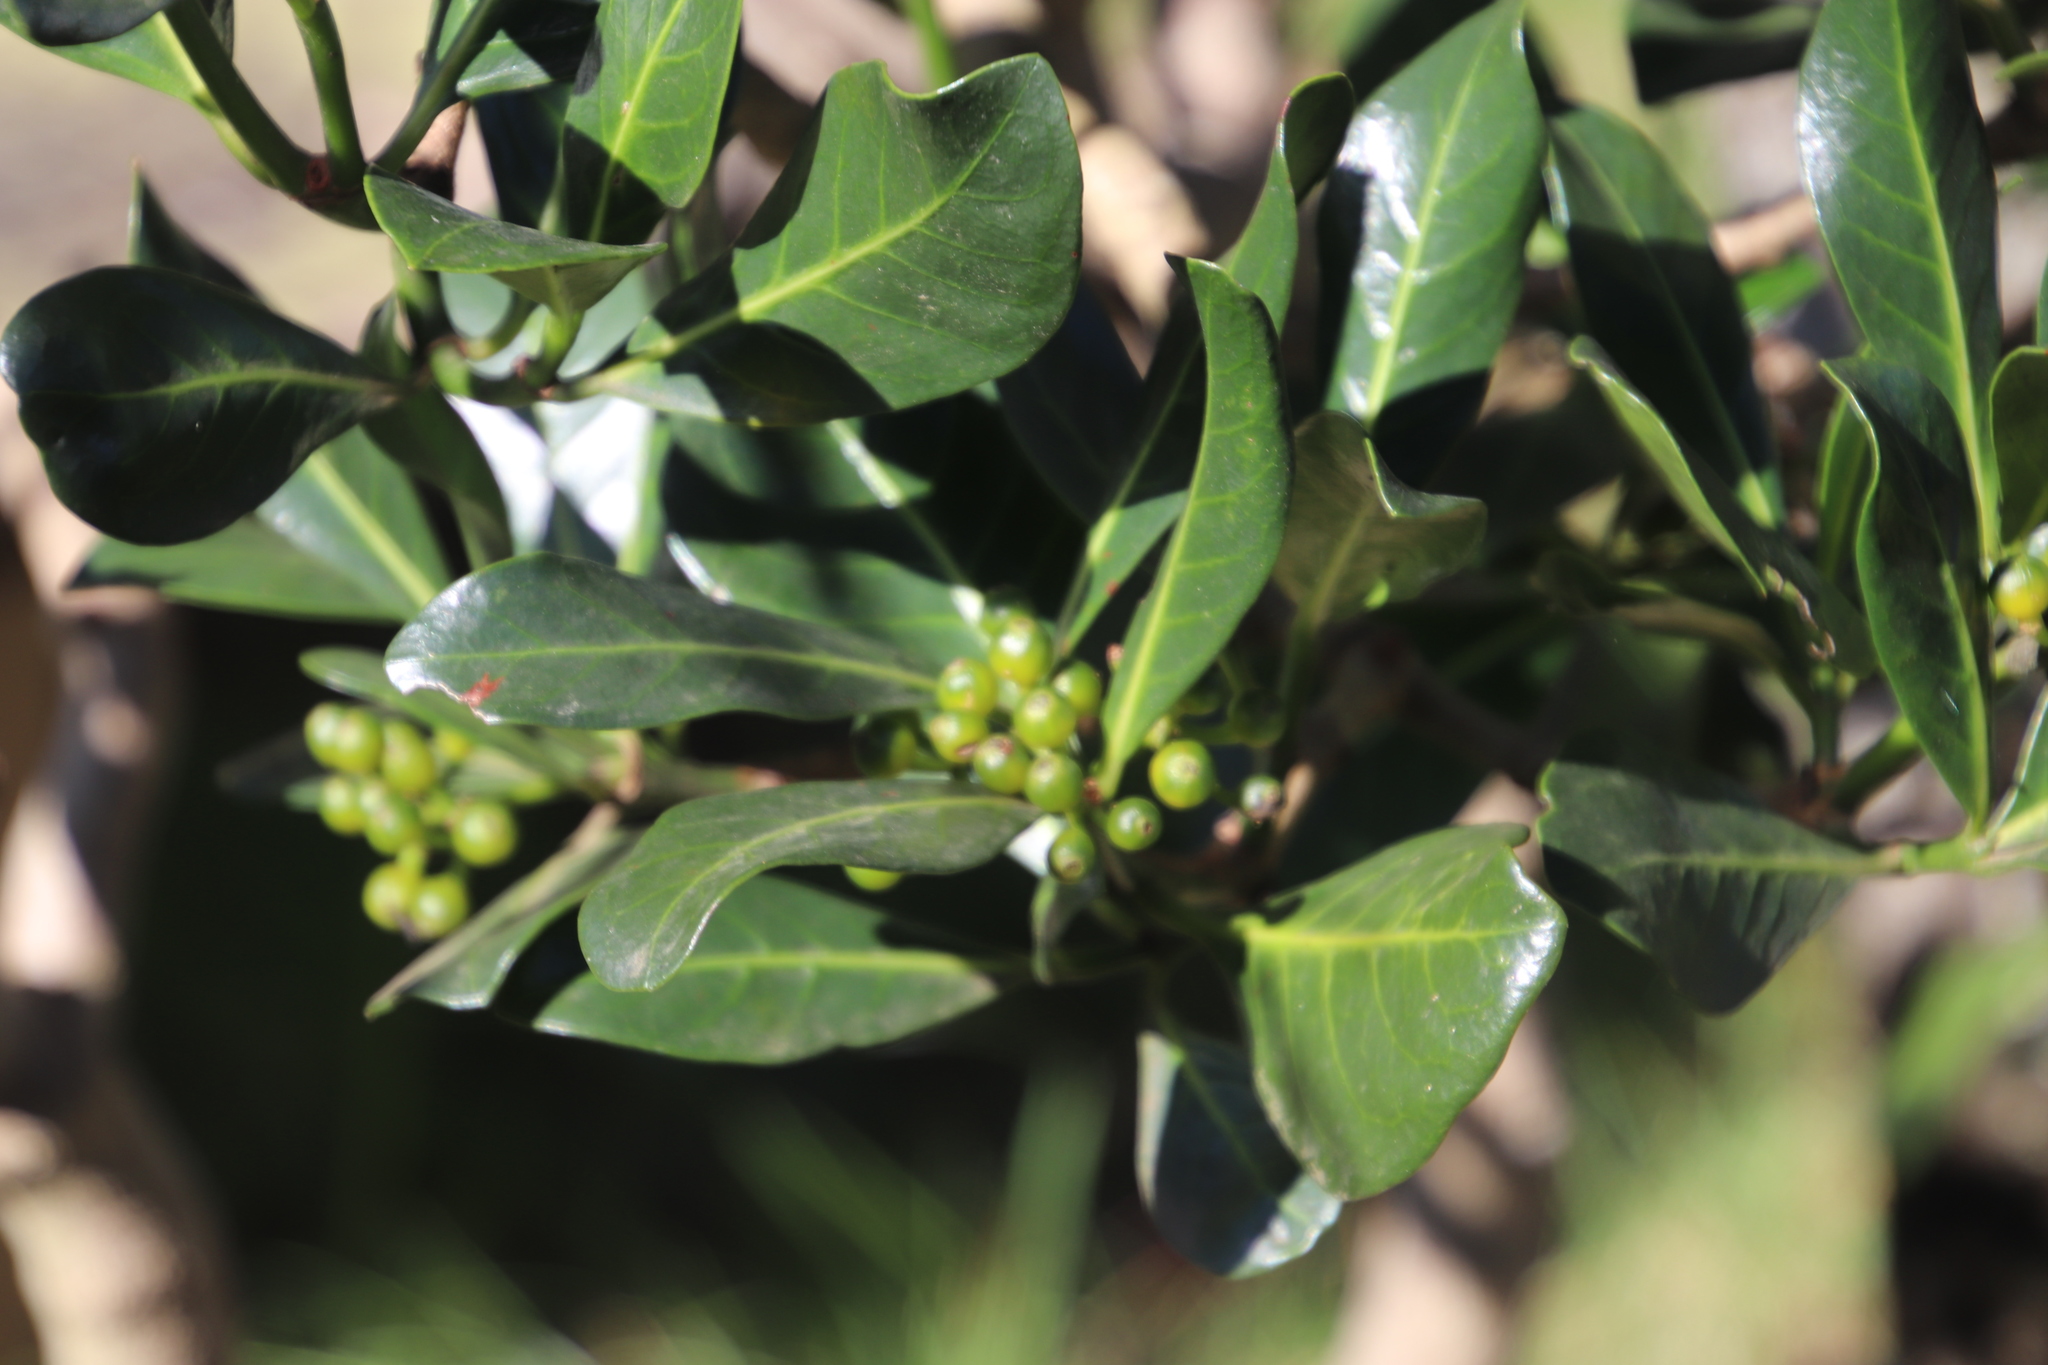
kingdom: Plantae
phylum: Tracheophyta
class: Magnoliopsida
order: Gentianales
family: Rubiaceae
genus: Psychotria
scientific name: Psychotria
